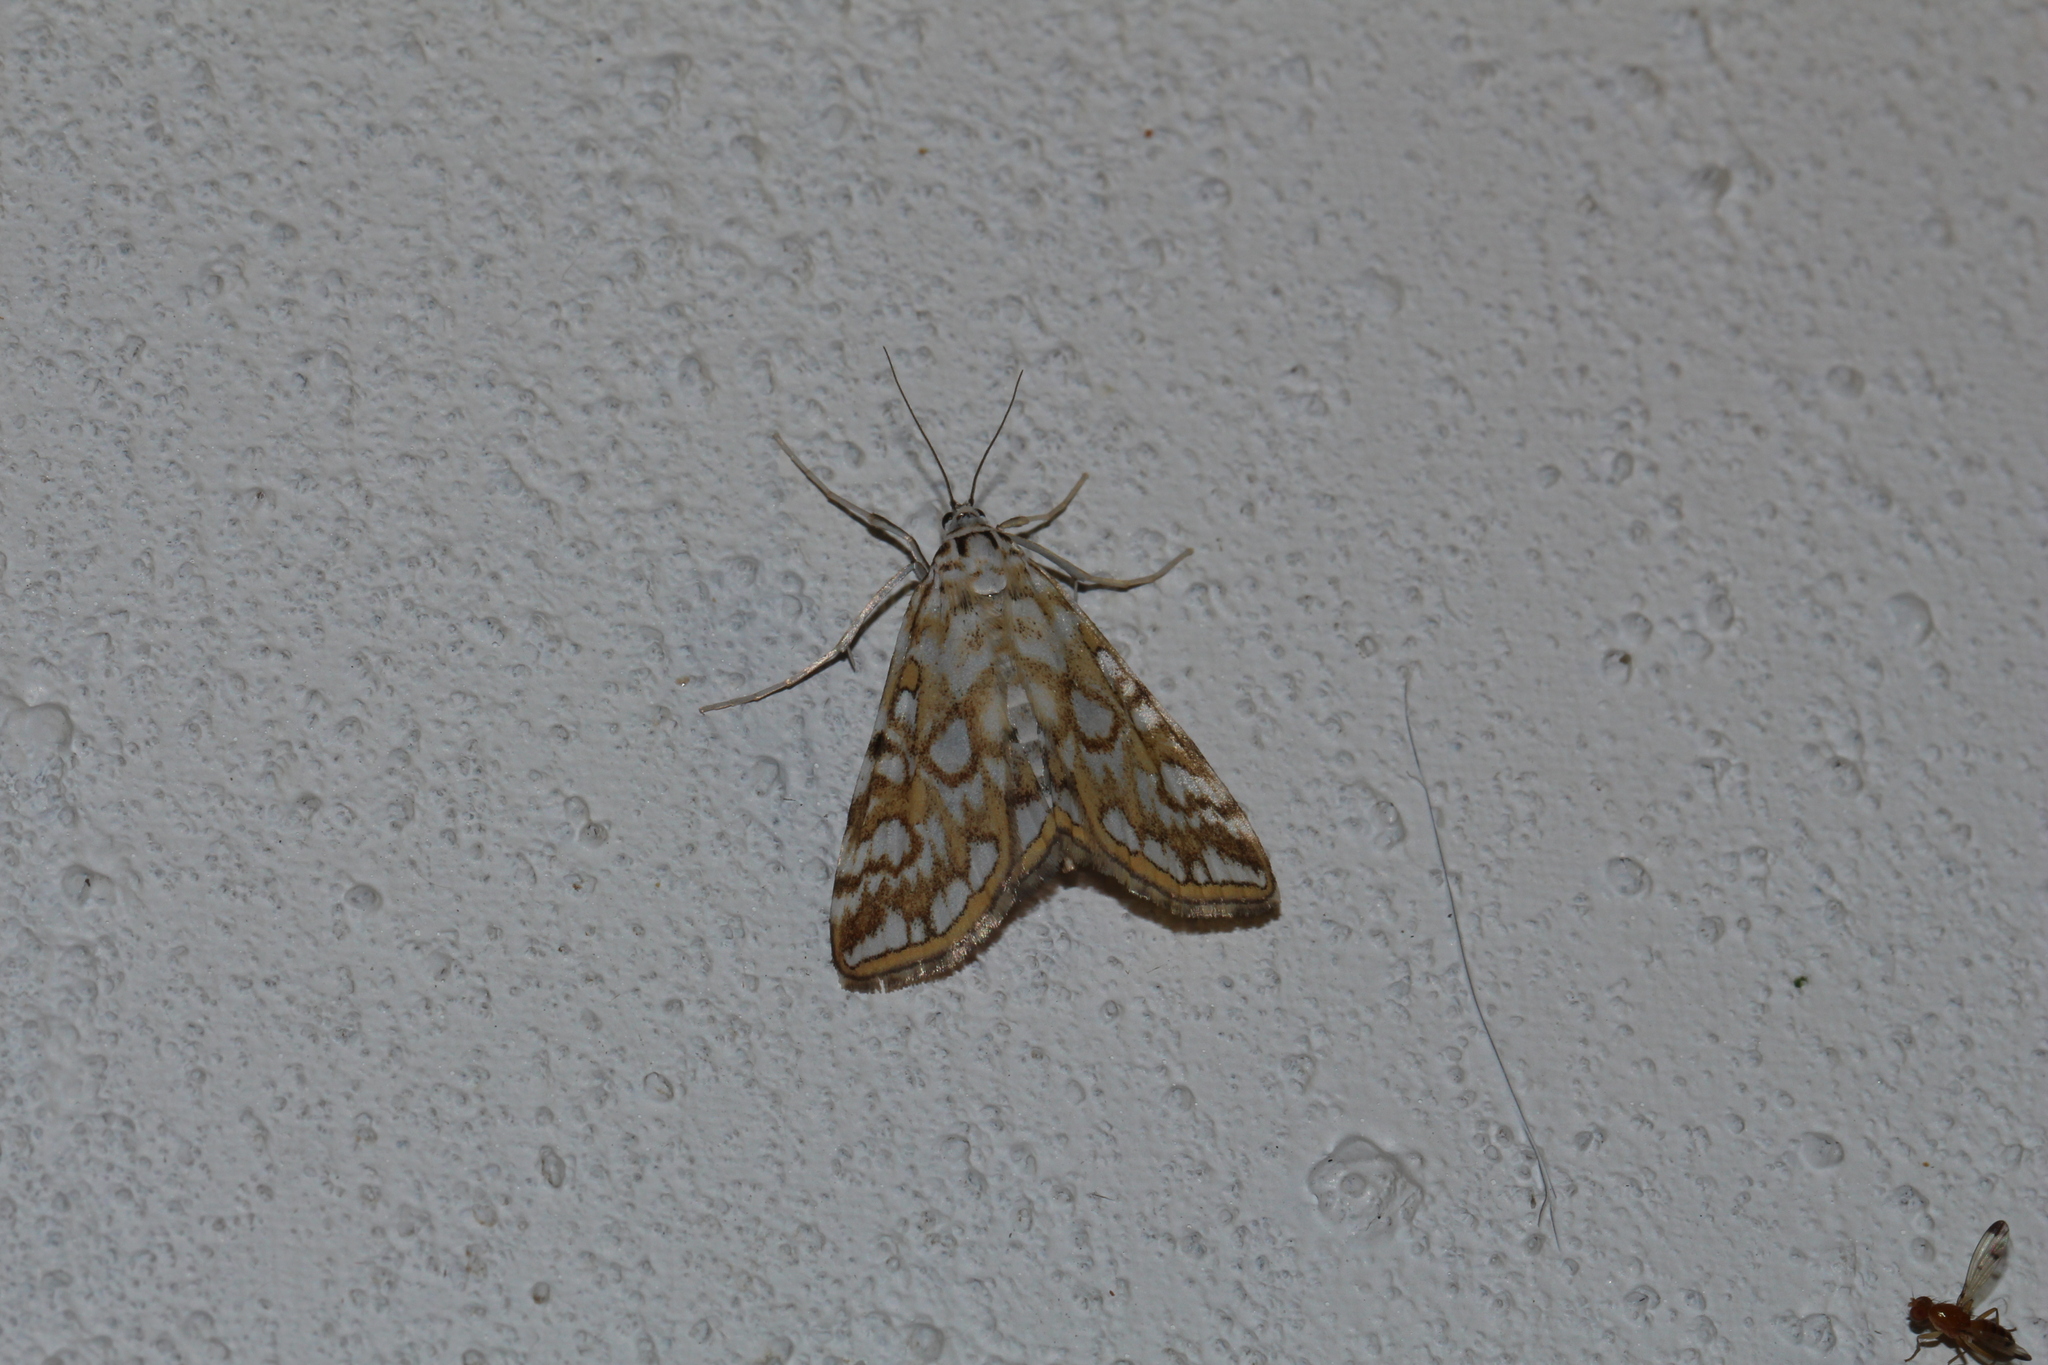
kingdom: Animalia
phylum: Arthropoda
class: Insecta
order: Lepidoptera
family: Crambidae
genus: Elophila
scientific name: Elophila nymphaeata
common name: Brown china-mark
